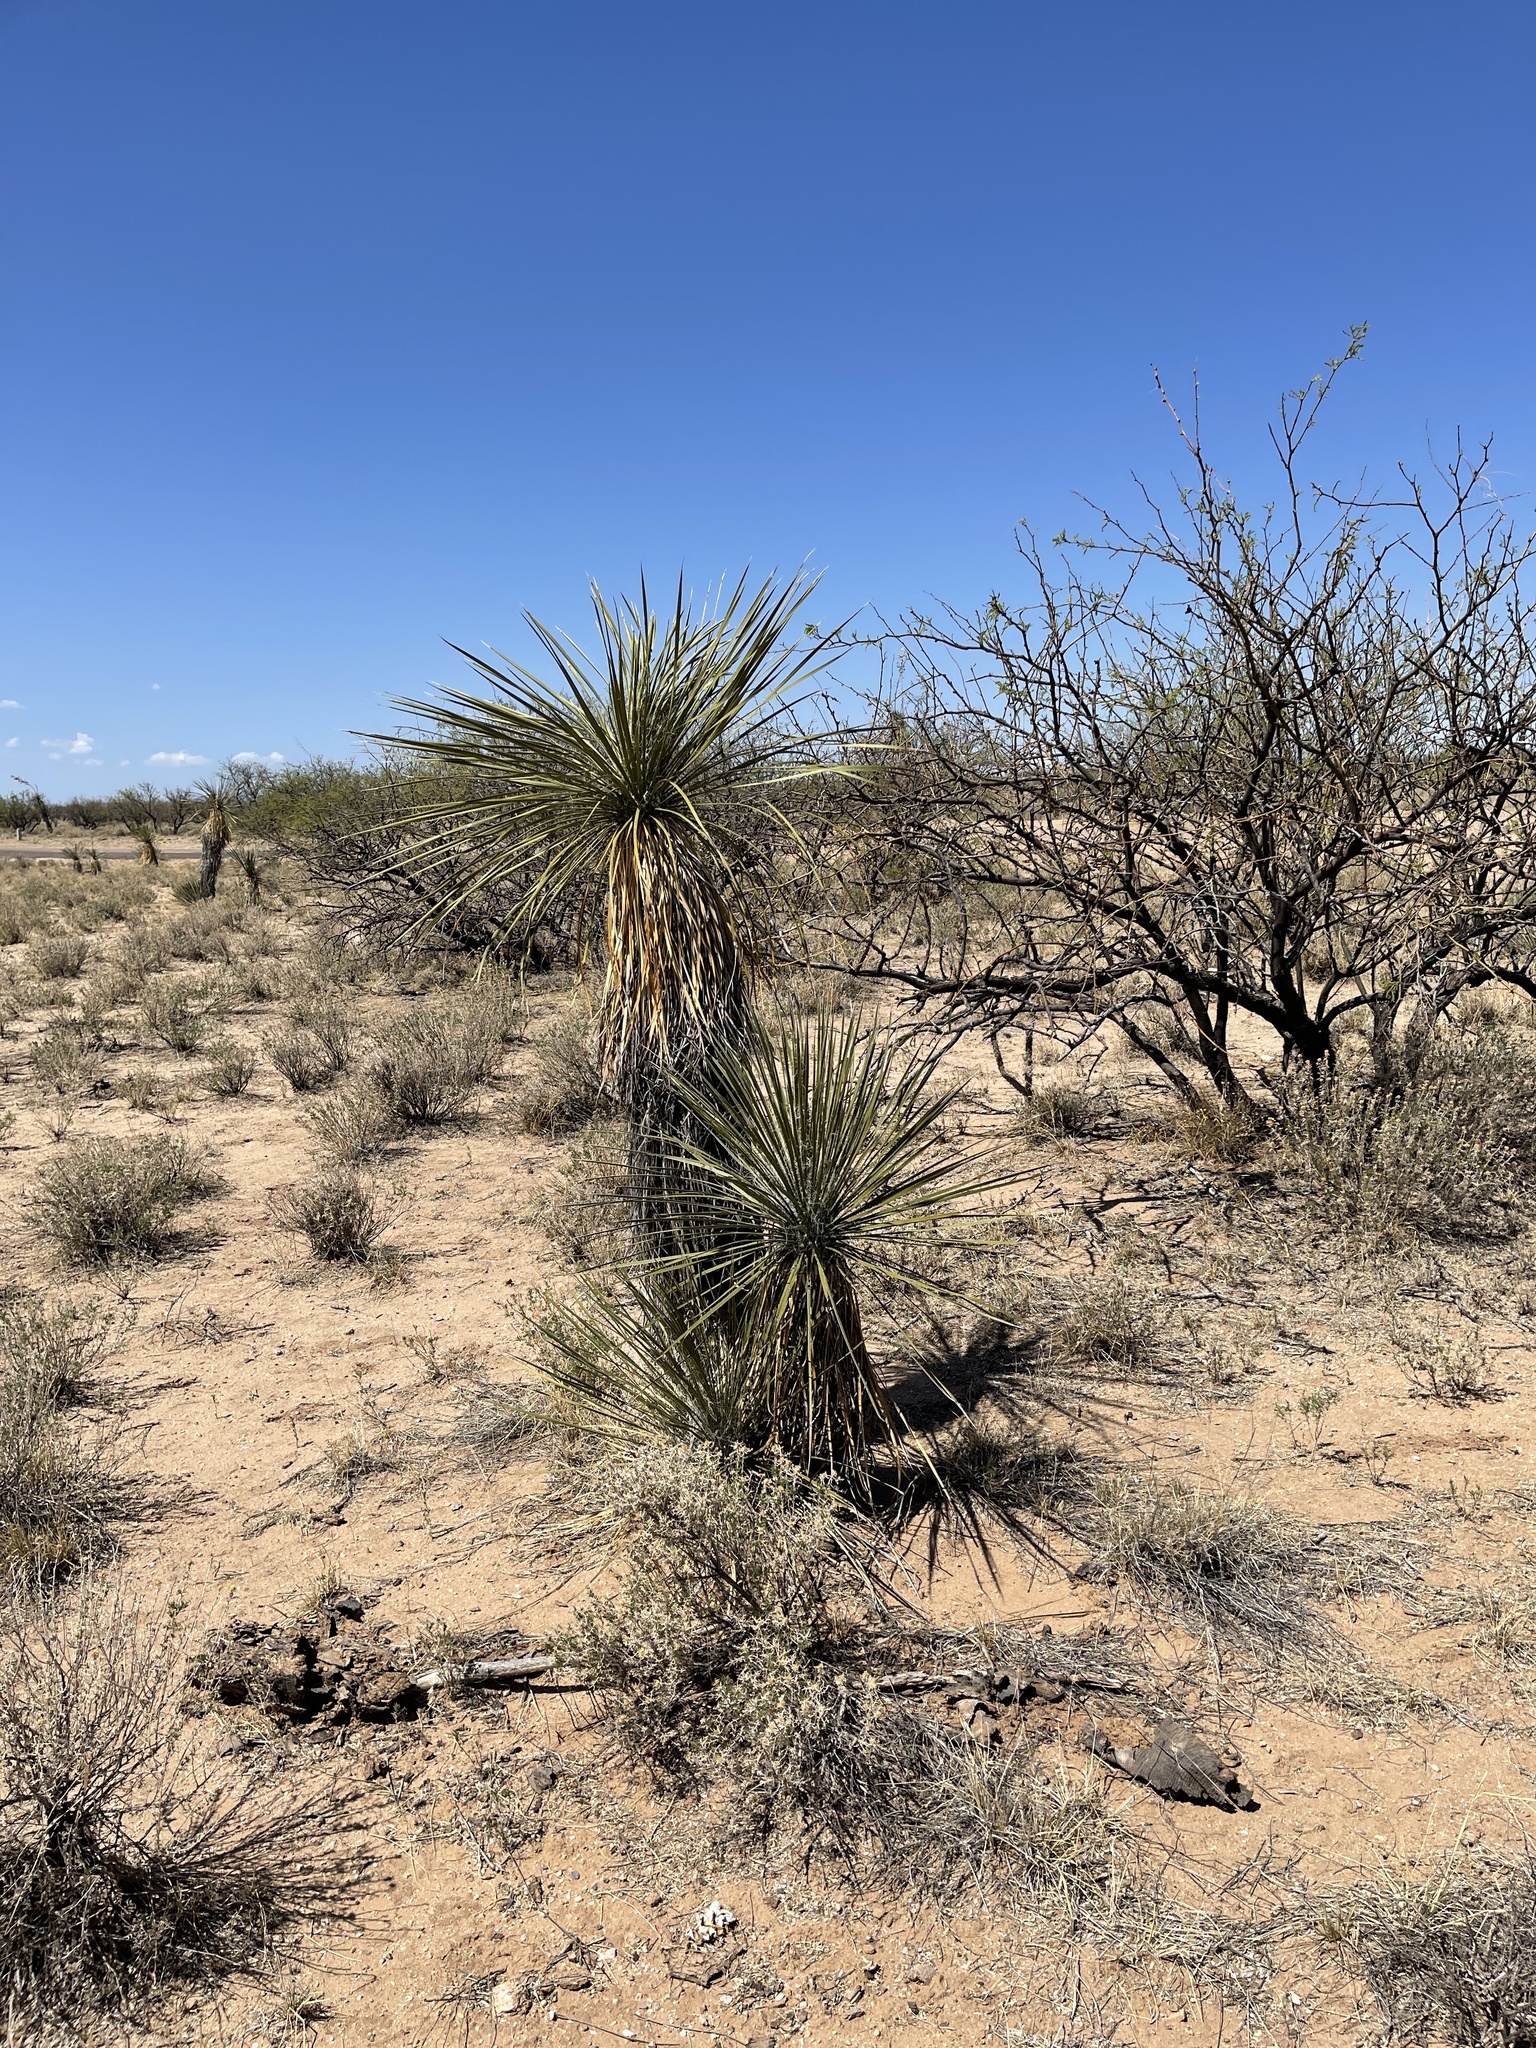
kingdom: Plantae
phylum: Tracheophyta
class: Liliopsida
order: Asparagales
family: Asparagaceae
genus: Yucca
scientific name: Yucca elata
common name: Palmella
